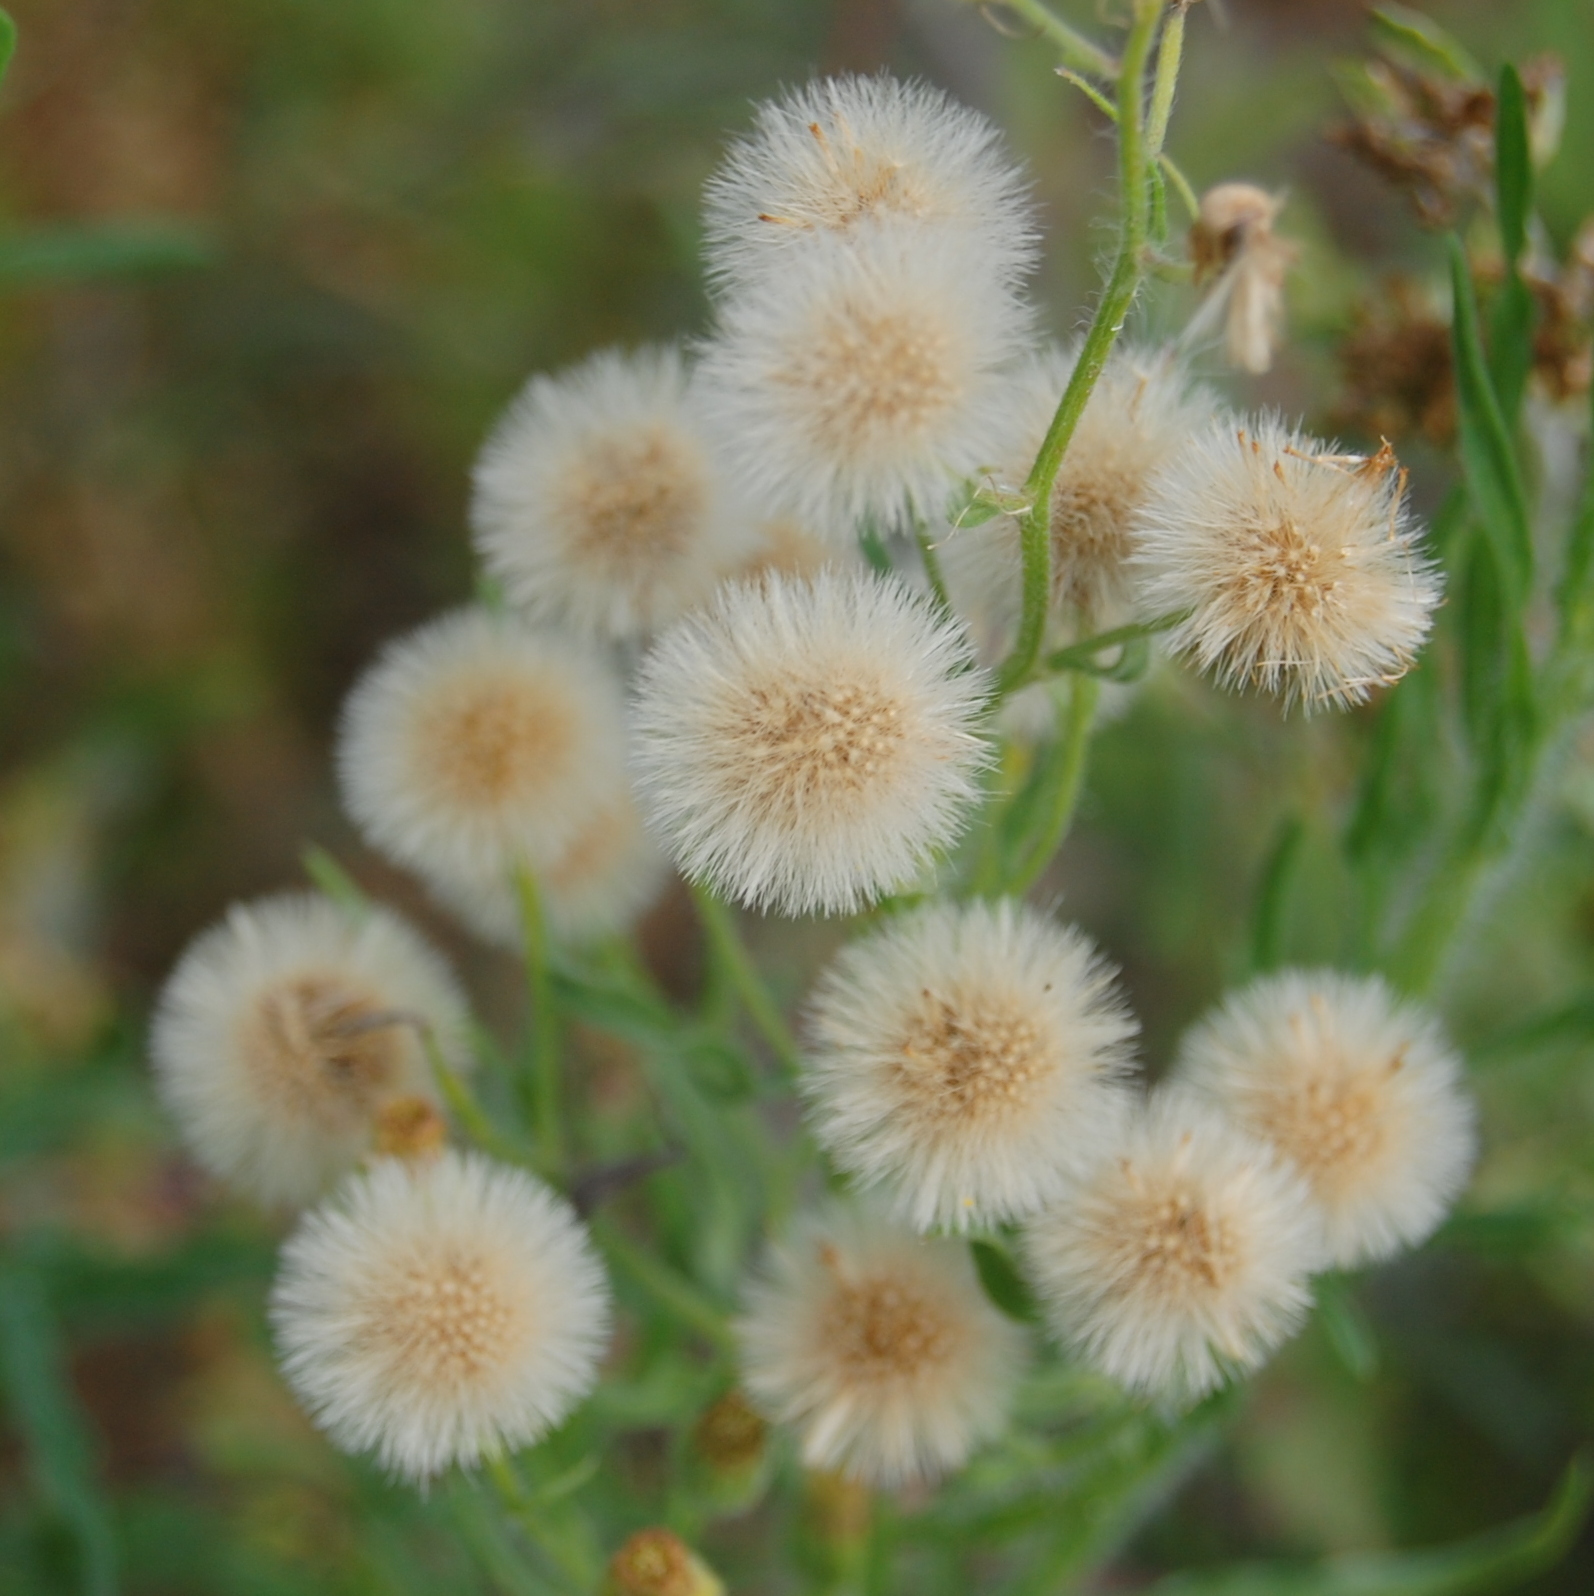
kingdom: Plantae
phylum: Tracheophyta
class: Magnoliopsida
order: Asterales
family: Asteraceae
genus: Erigeron
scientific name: Erigeron bonariensis
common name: Argentine fleabane
